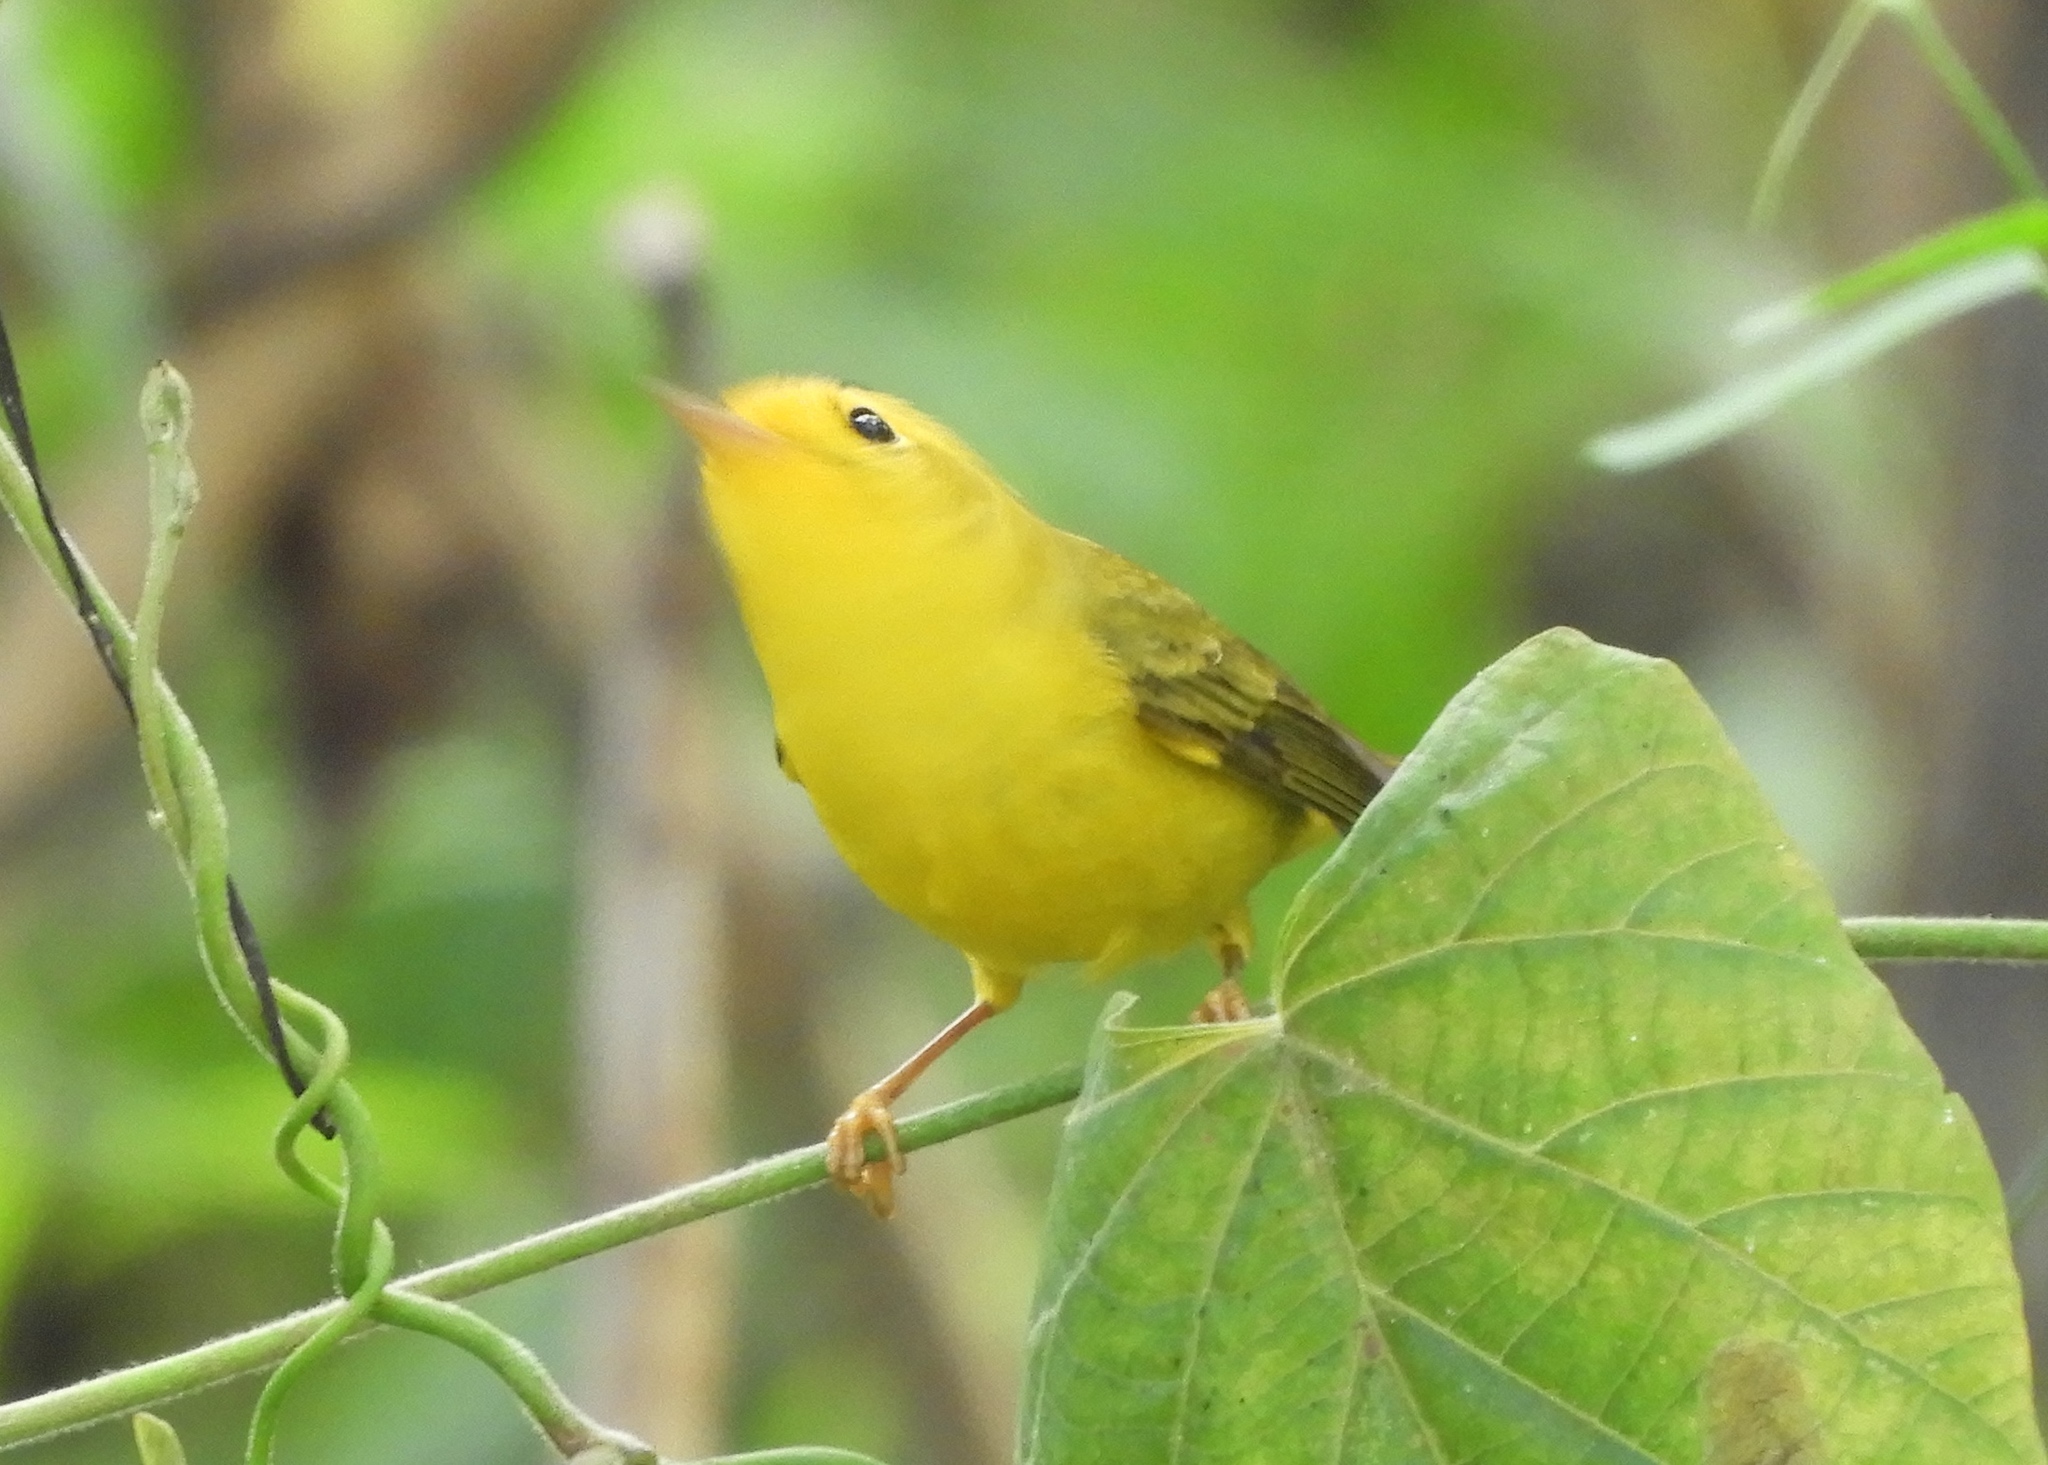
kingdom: Animalia
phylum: Chordata
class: Aves
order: Passeriformes
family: Parulidae
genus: Cardellina
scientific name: Cardellina pusilla
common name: Wilson's warbler
